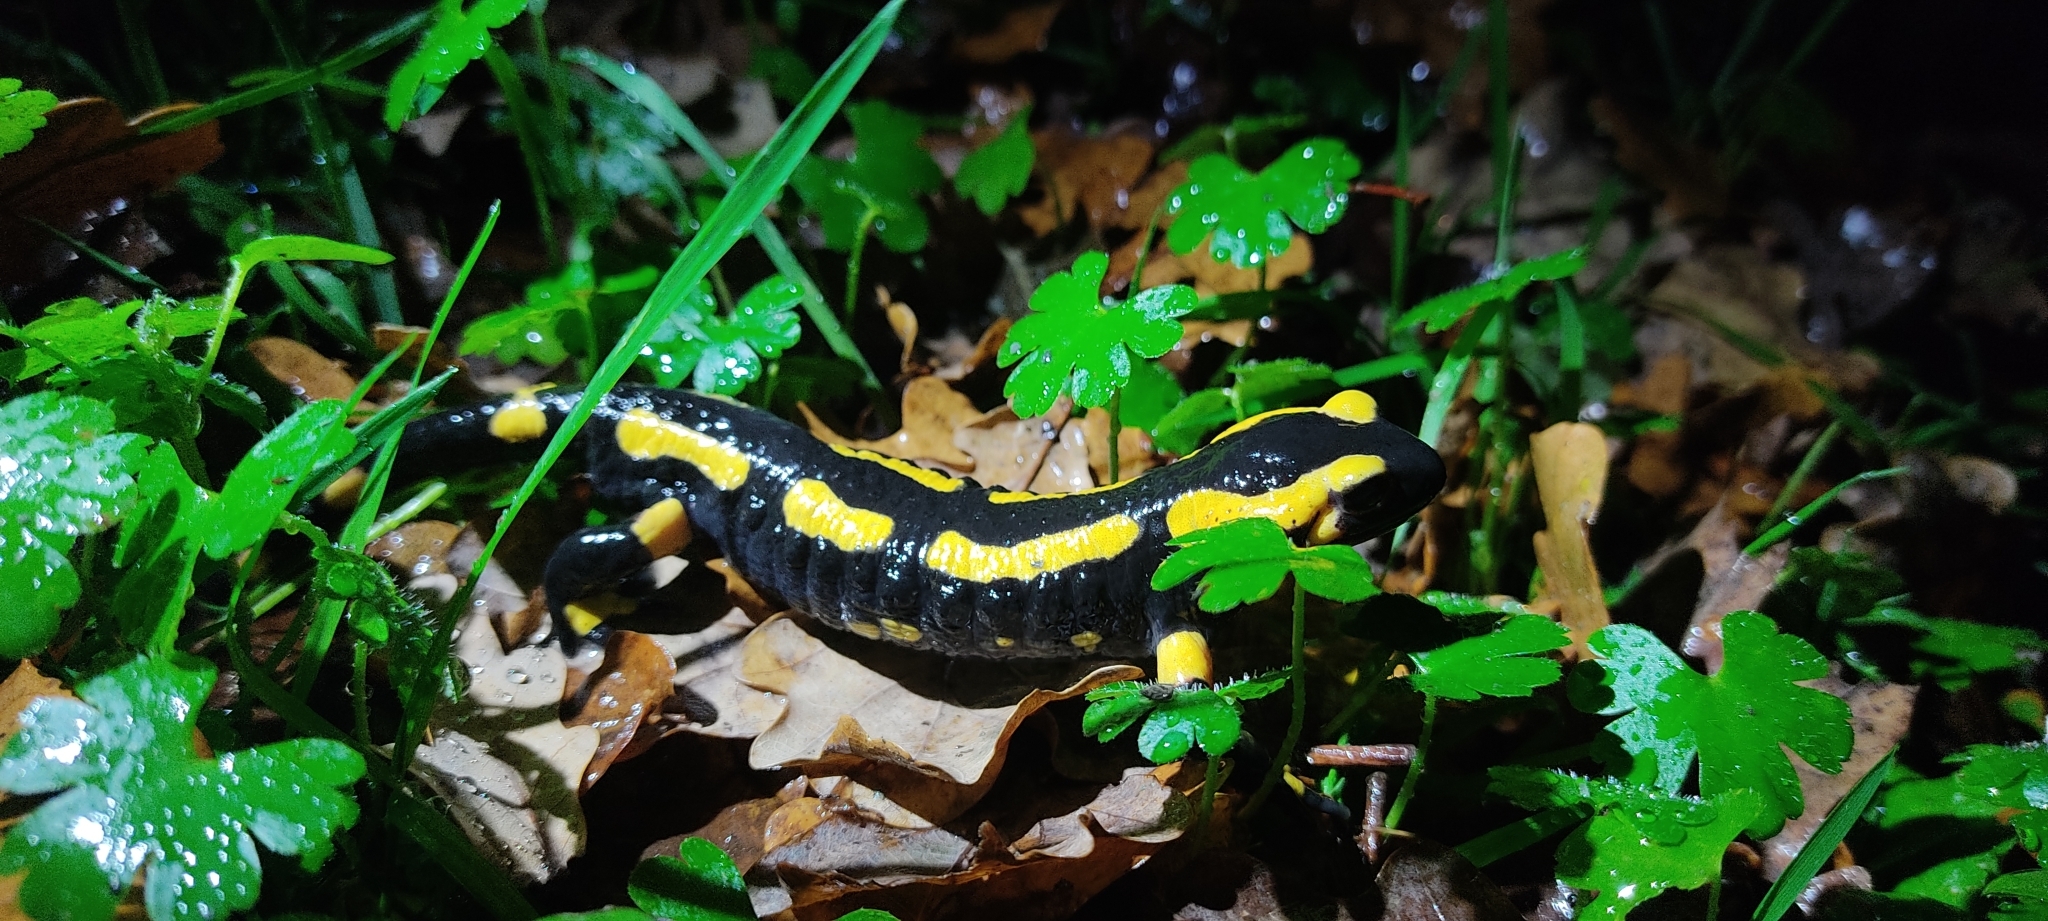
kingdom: Animalia
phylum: Chordata
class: Amphibia
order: Caudata
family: Salamandridae
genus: Salamandra
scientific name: Salamandra salamandra
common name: Fire salamander
